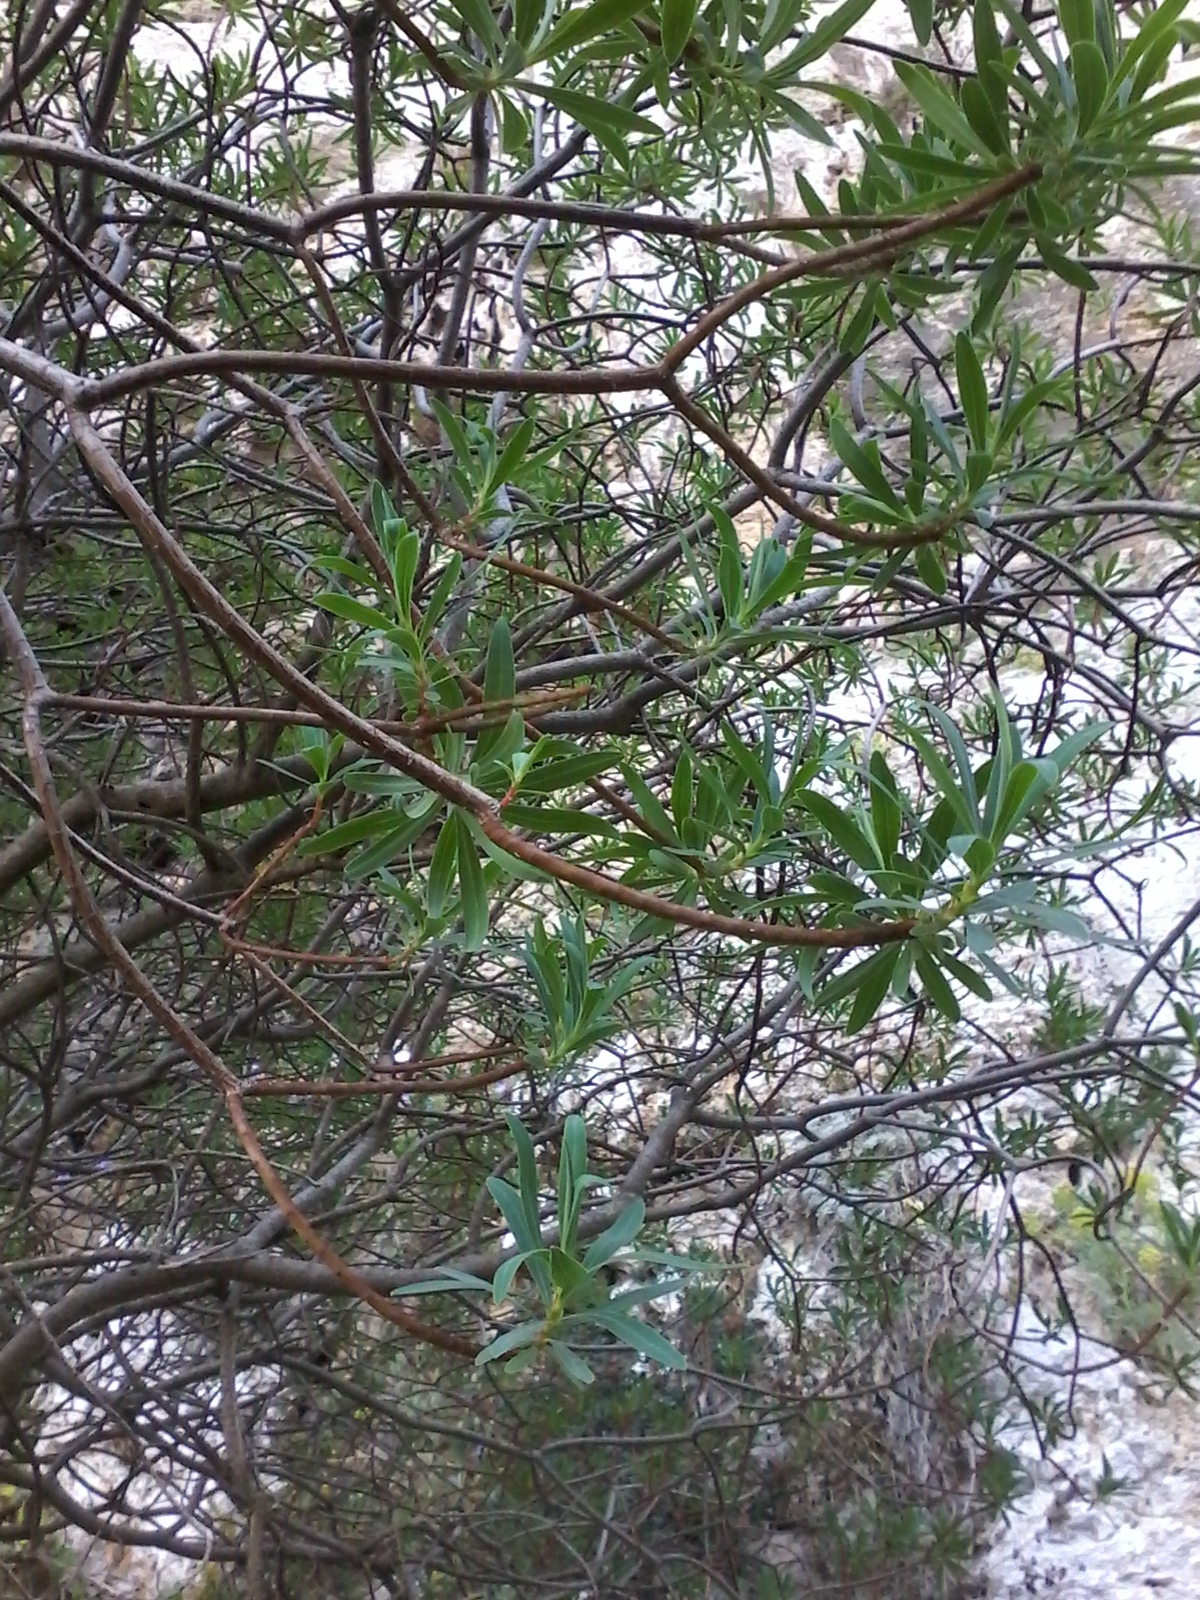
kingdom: Plantae
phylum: Tracheophyta
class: Magnoliopsida
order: Malpighiales
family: Euphorbiaceae
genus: Euphorbia
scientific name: Euphorbia dendroides
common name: Tree spurge
